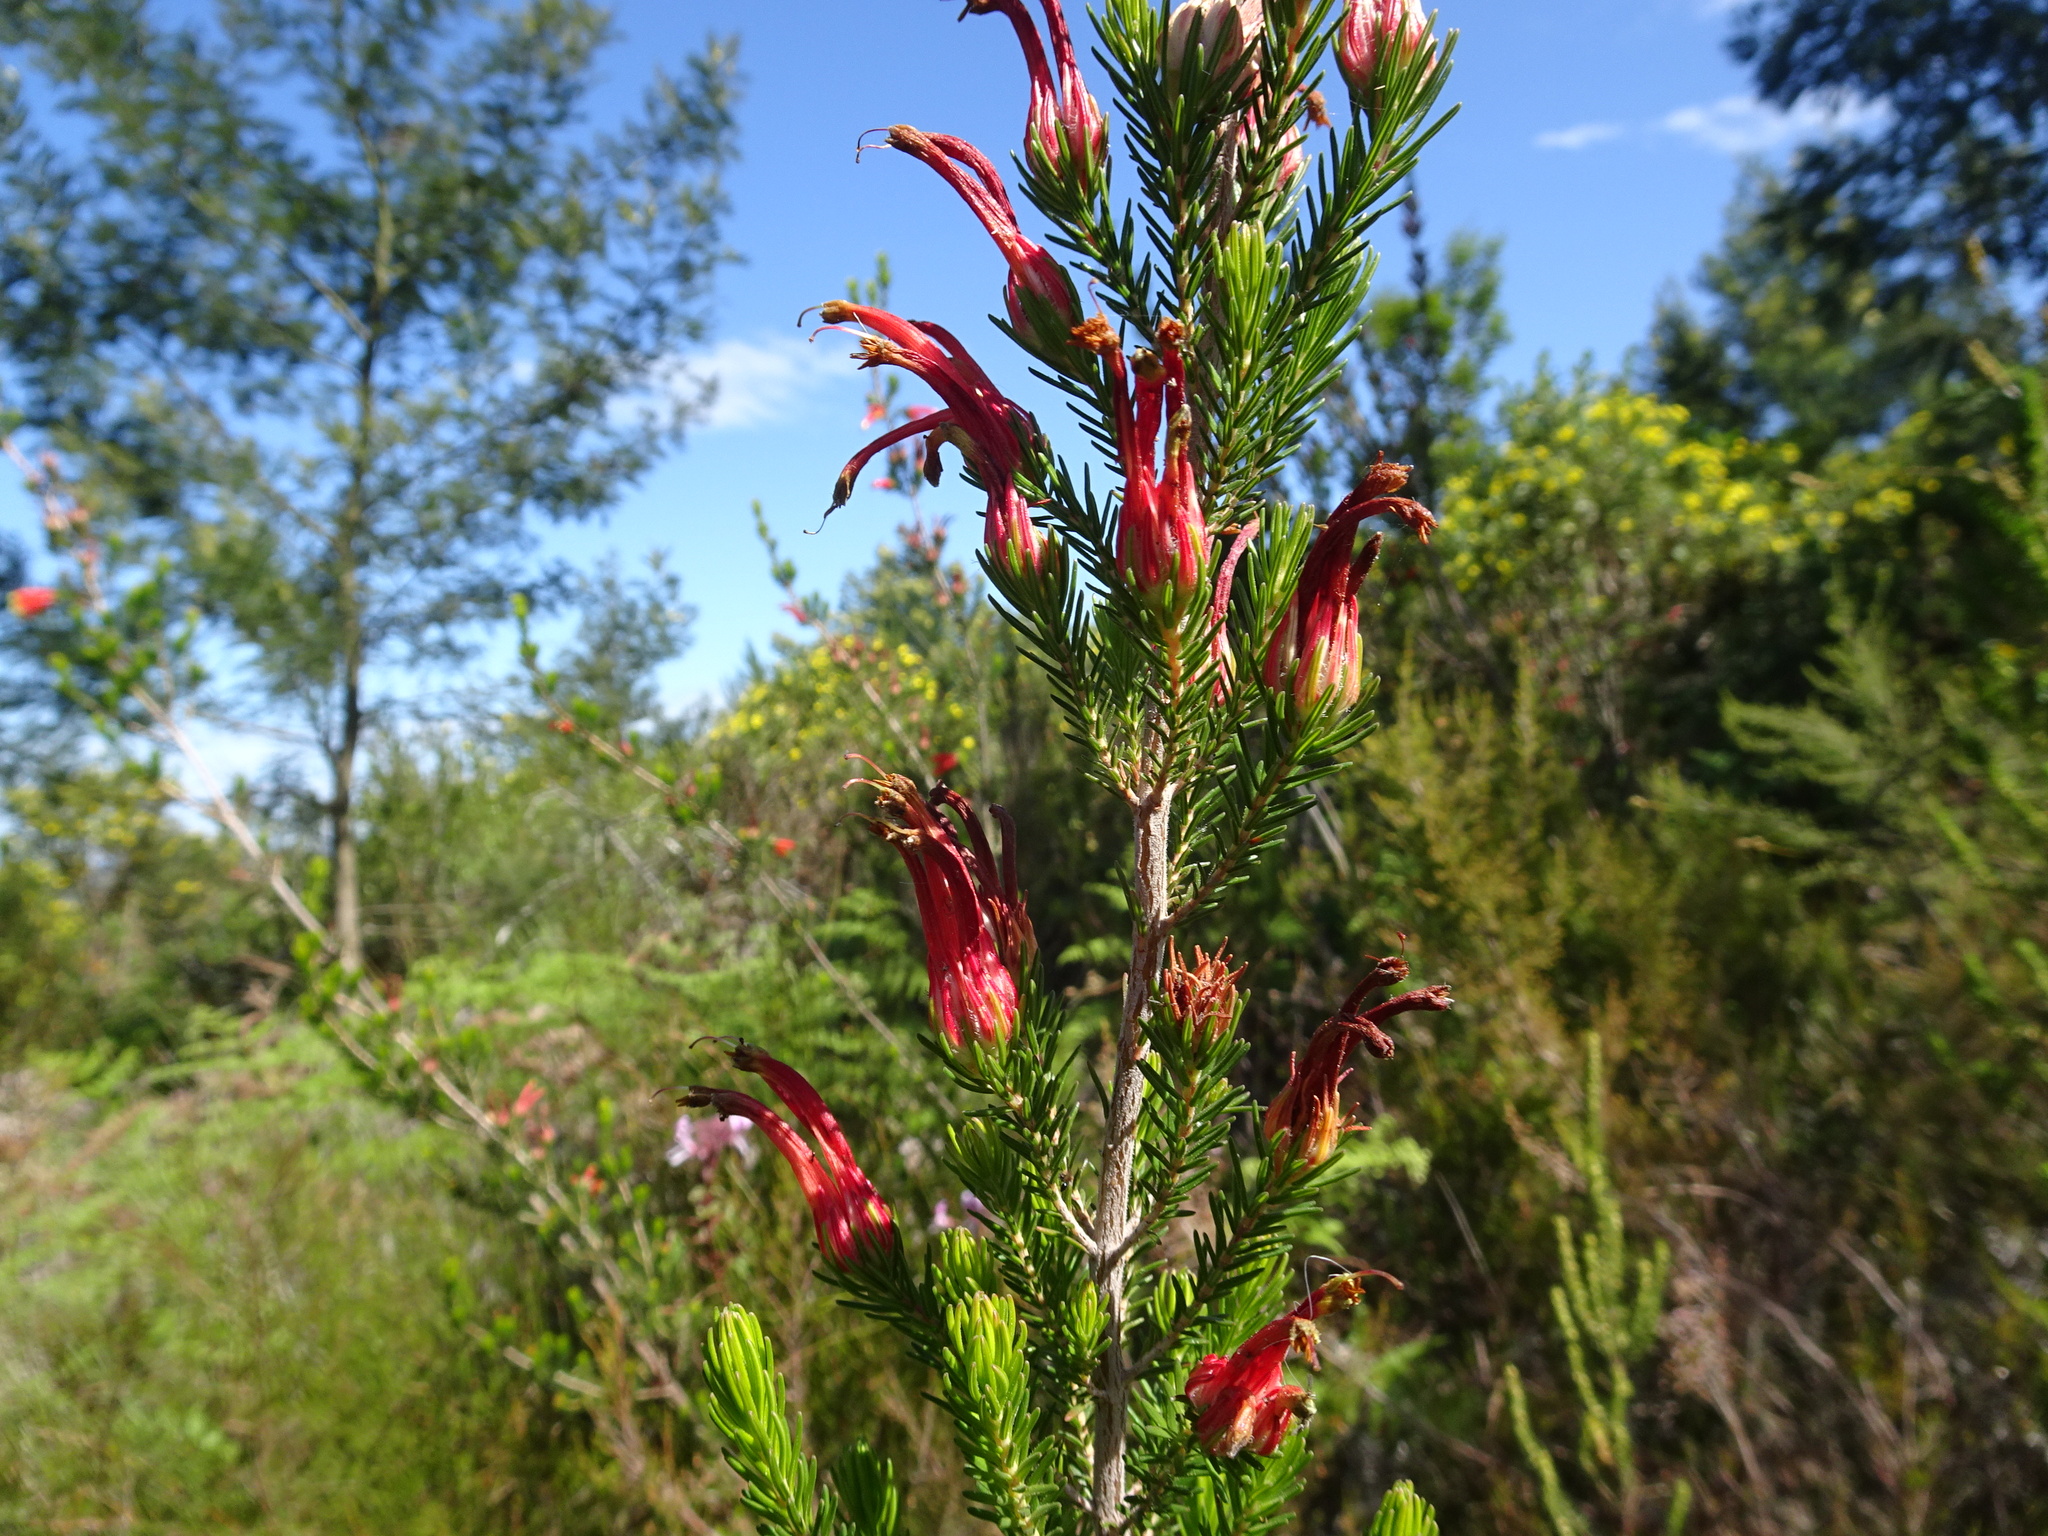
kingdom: Plantae
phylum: Tracheophyta
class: Magnoliopsida
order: Ericales
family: Ericaceae
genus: Erica
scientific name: Erica unicolor
